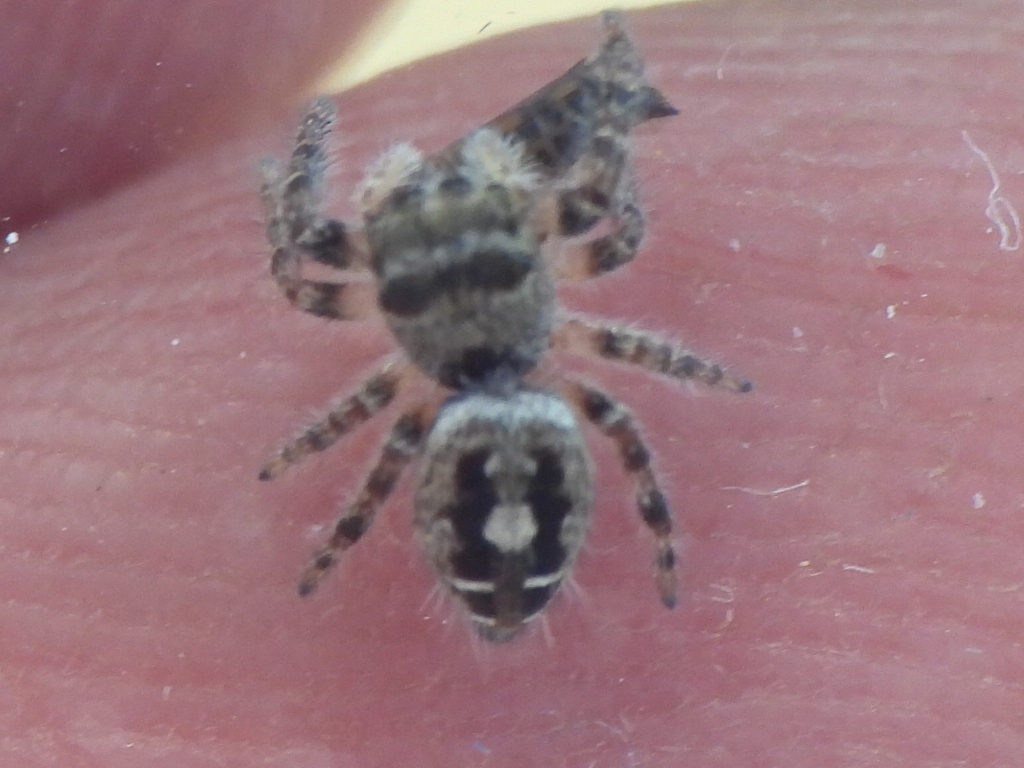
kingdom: Animalia
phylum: Arthropoda
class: Arachnida
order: Araneae
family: Salticidae
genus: Phidippus
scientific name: Phidippus carolinensis
